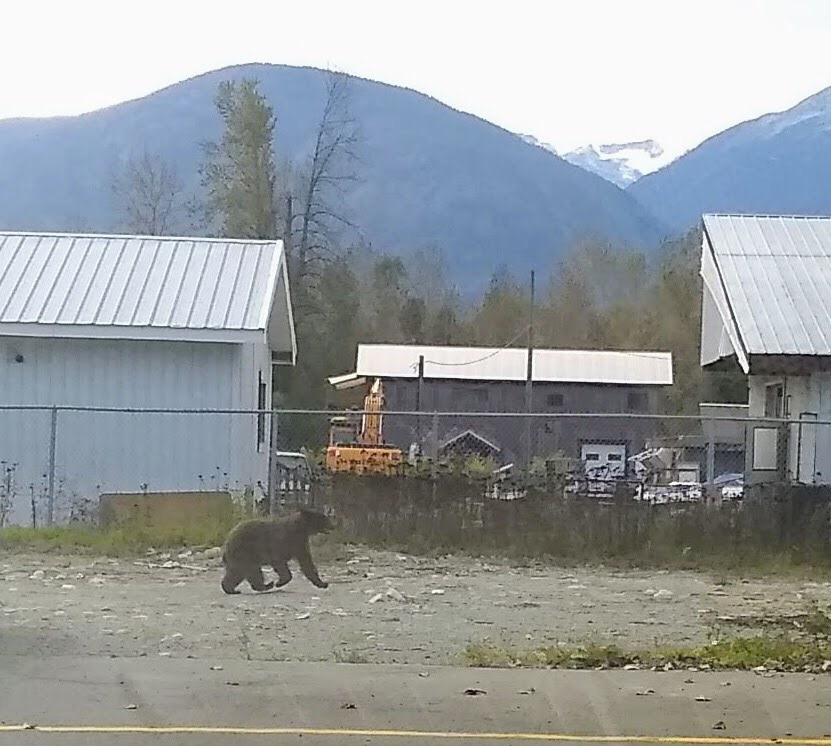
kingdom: Animalia
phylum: Chordata
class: Mammalia
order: Carnivora
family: Ursidae
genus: Ursus
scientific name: Ursus americanus
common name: American black bear
